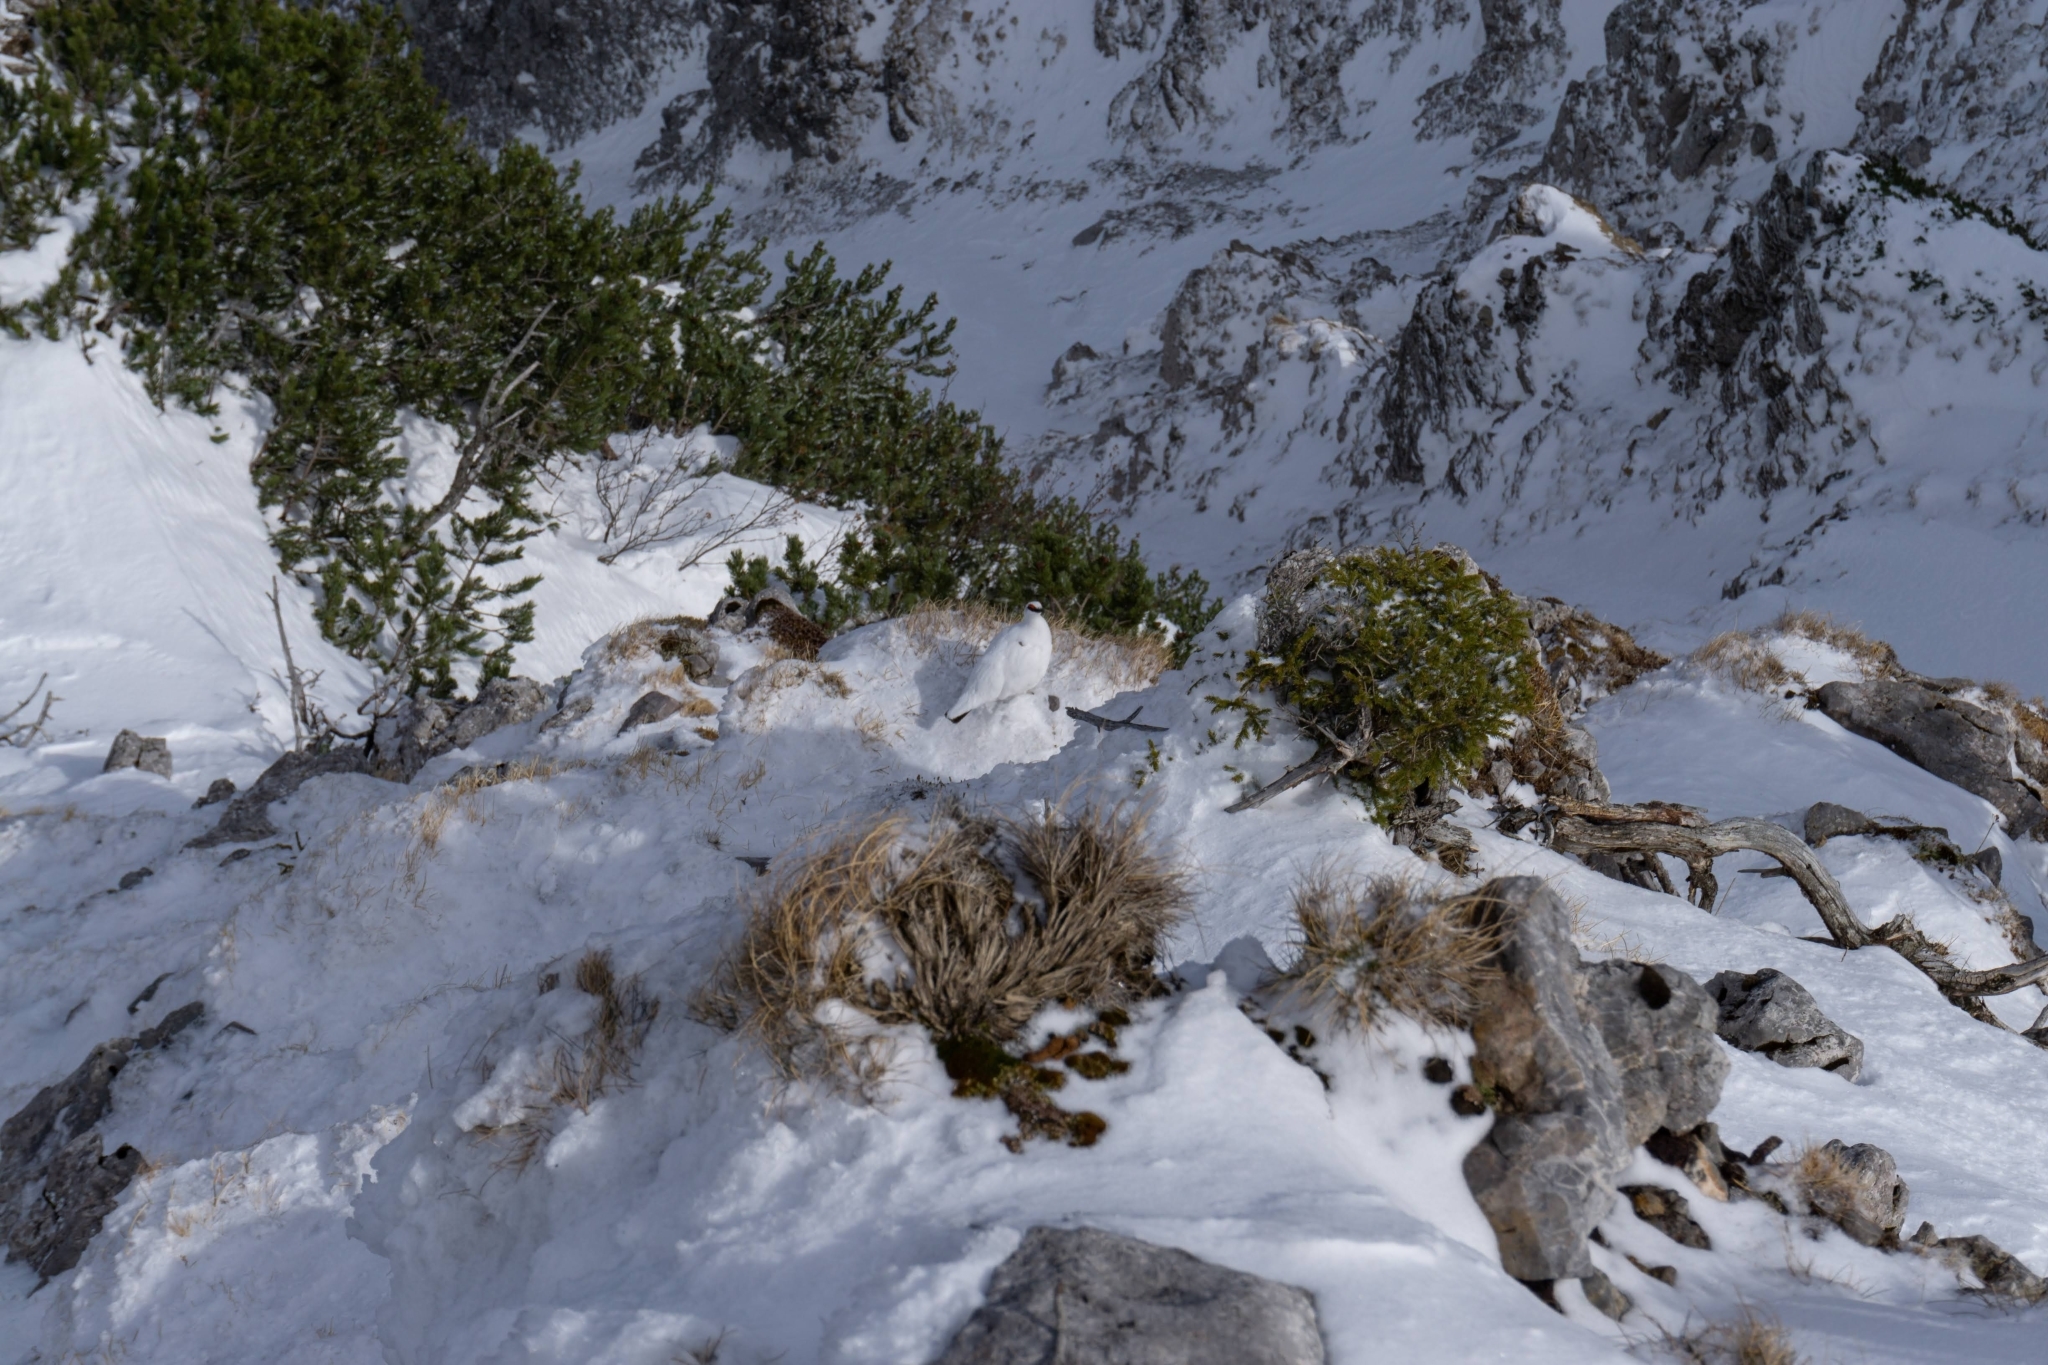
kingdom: Animalia
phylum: Chordata
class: Aves
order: Galliformes
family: Phasianidae
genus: Lagopus
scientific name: Lagopus muta
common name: Rock ptarmigan
